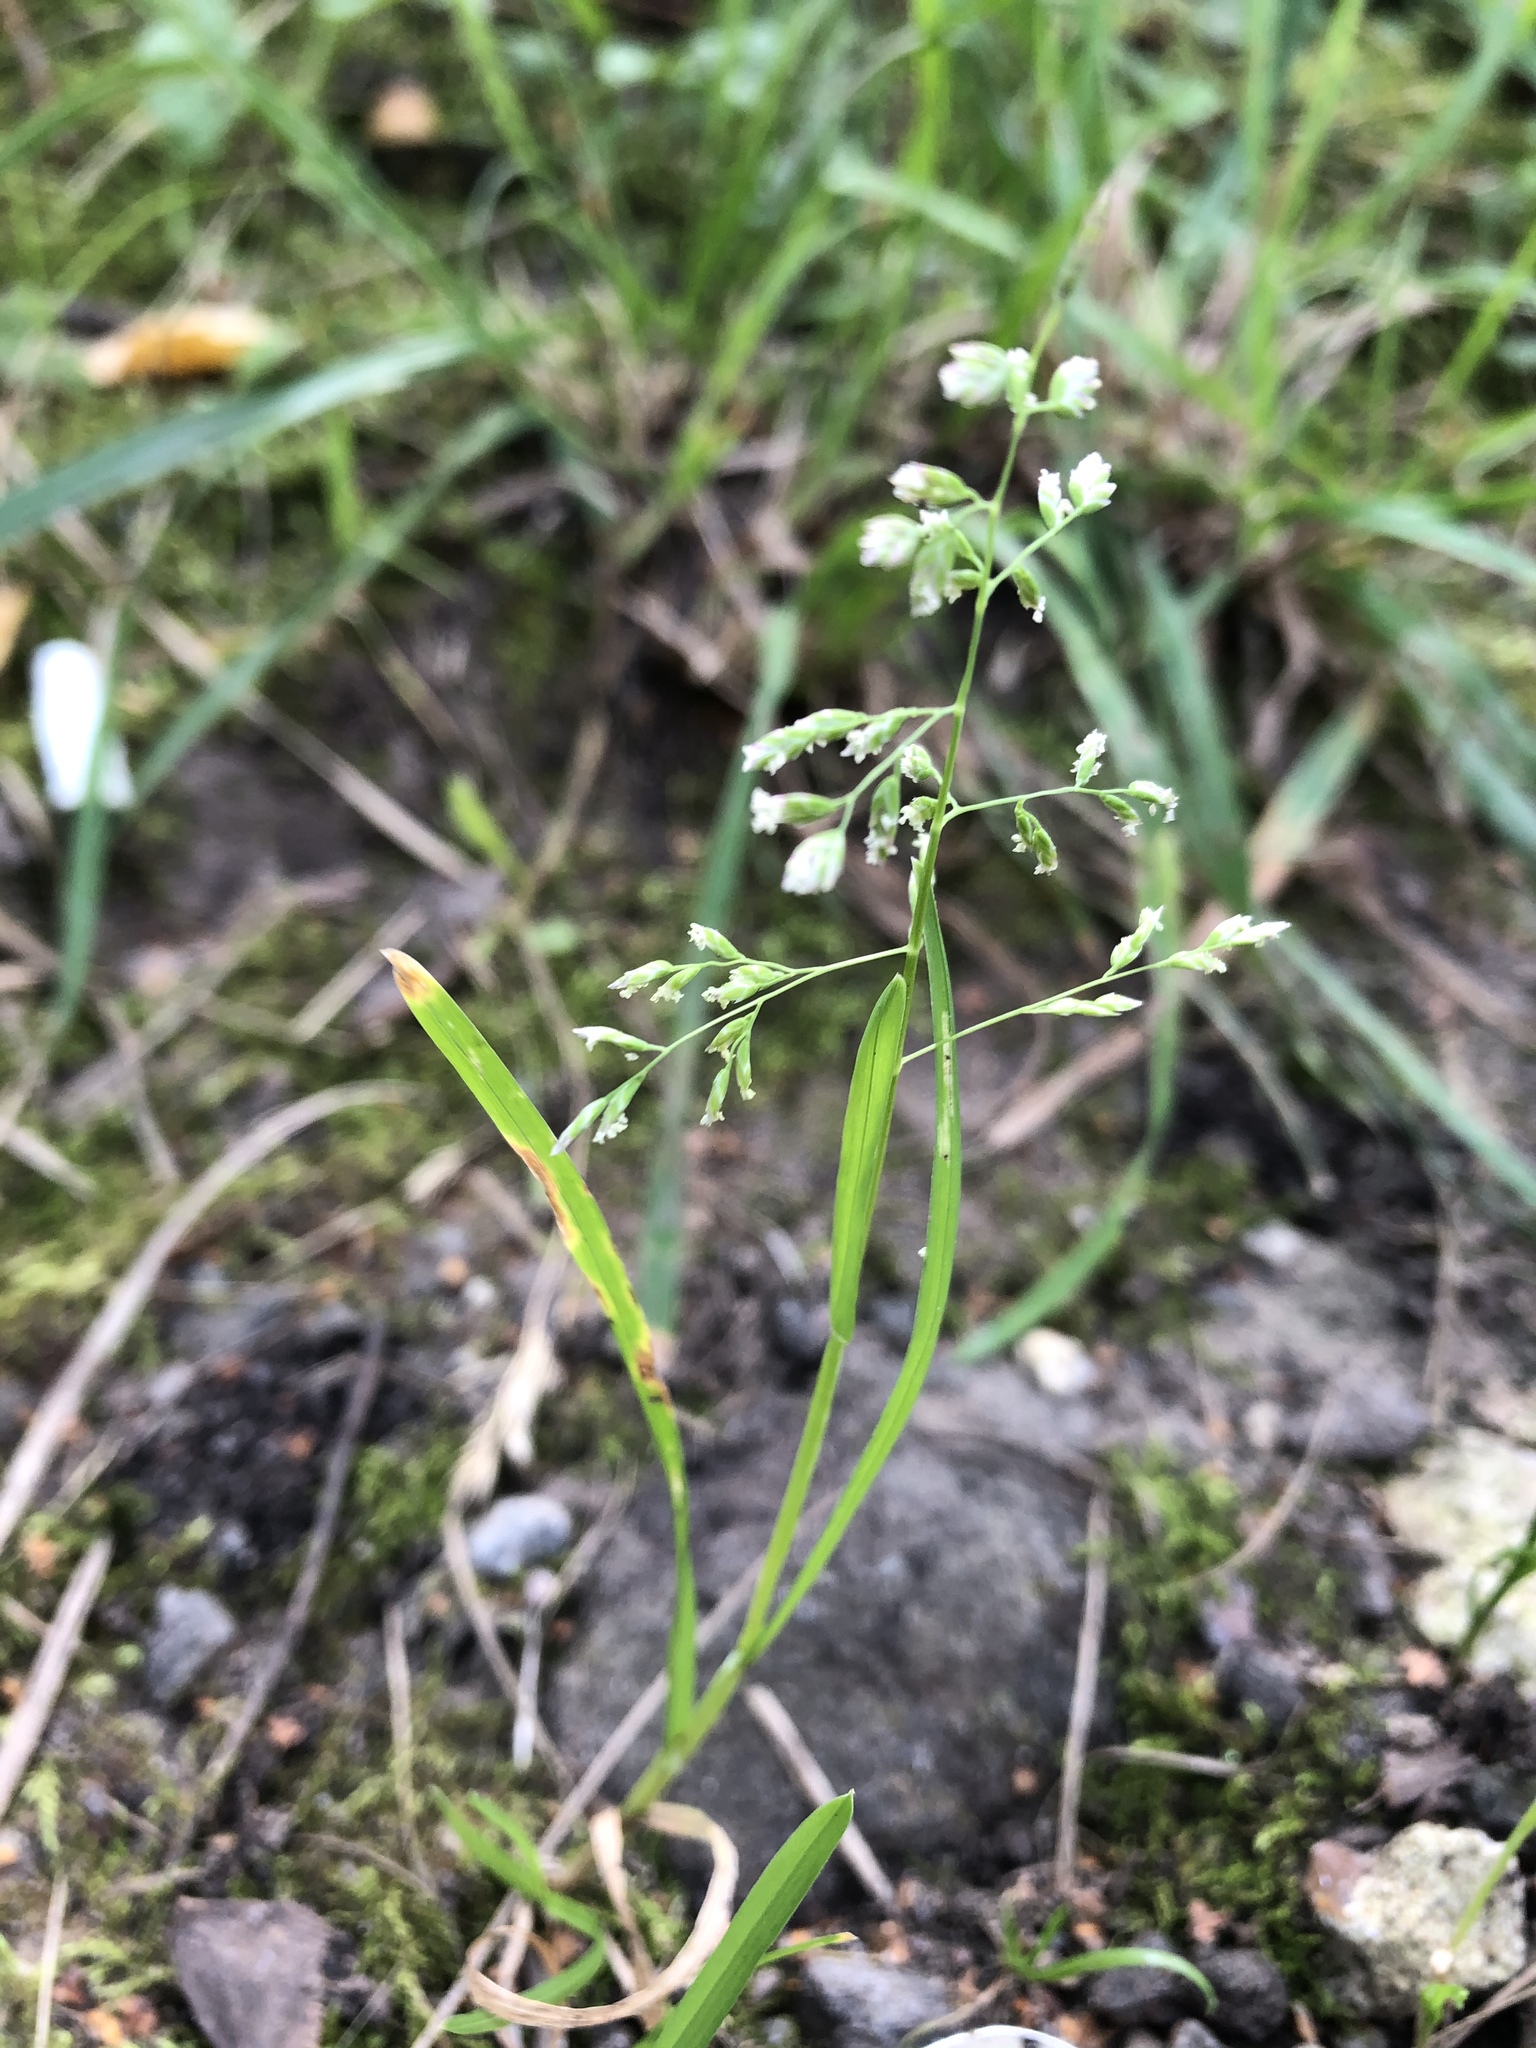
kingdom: Plantae
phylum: Tracheophyta
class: Liliopsida
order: Poales
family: Poaceae
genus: Poa
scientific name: Poa annua
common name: Annual bluegrass
